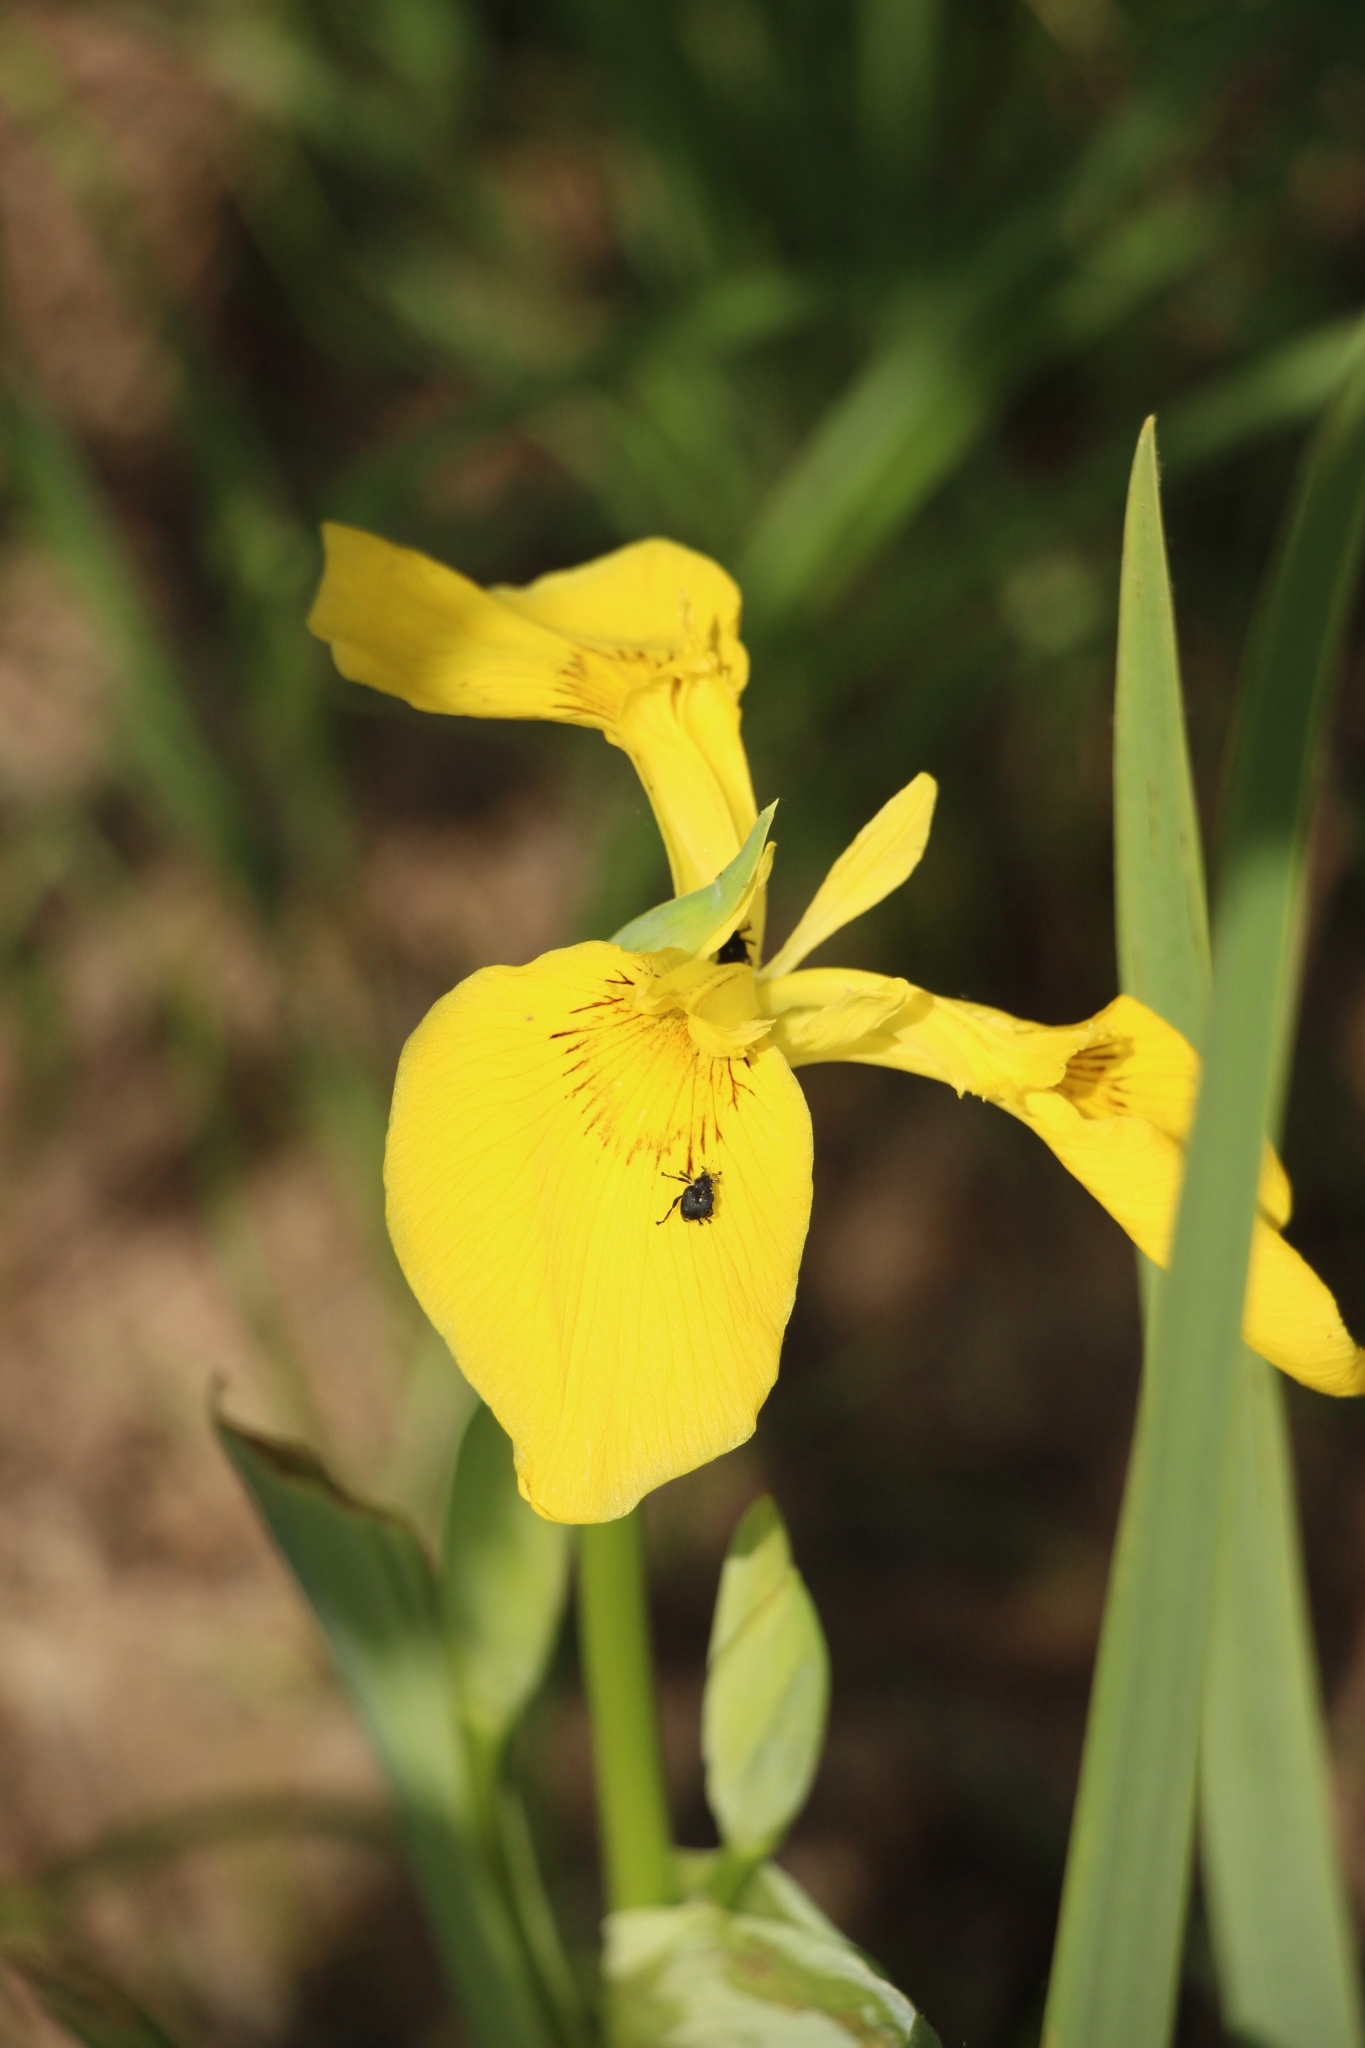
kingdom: Plantae
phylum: Tracheophyta
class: Liliopsida
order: Asparagales
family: Iridaceae
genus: Iris
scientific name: Iris pseudacorus
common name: Yellow flag
